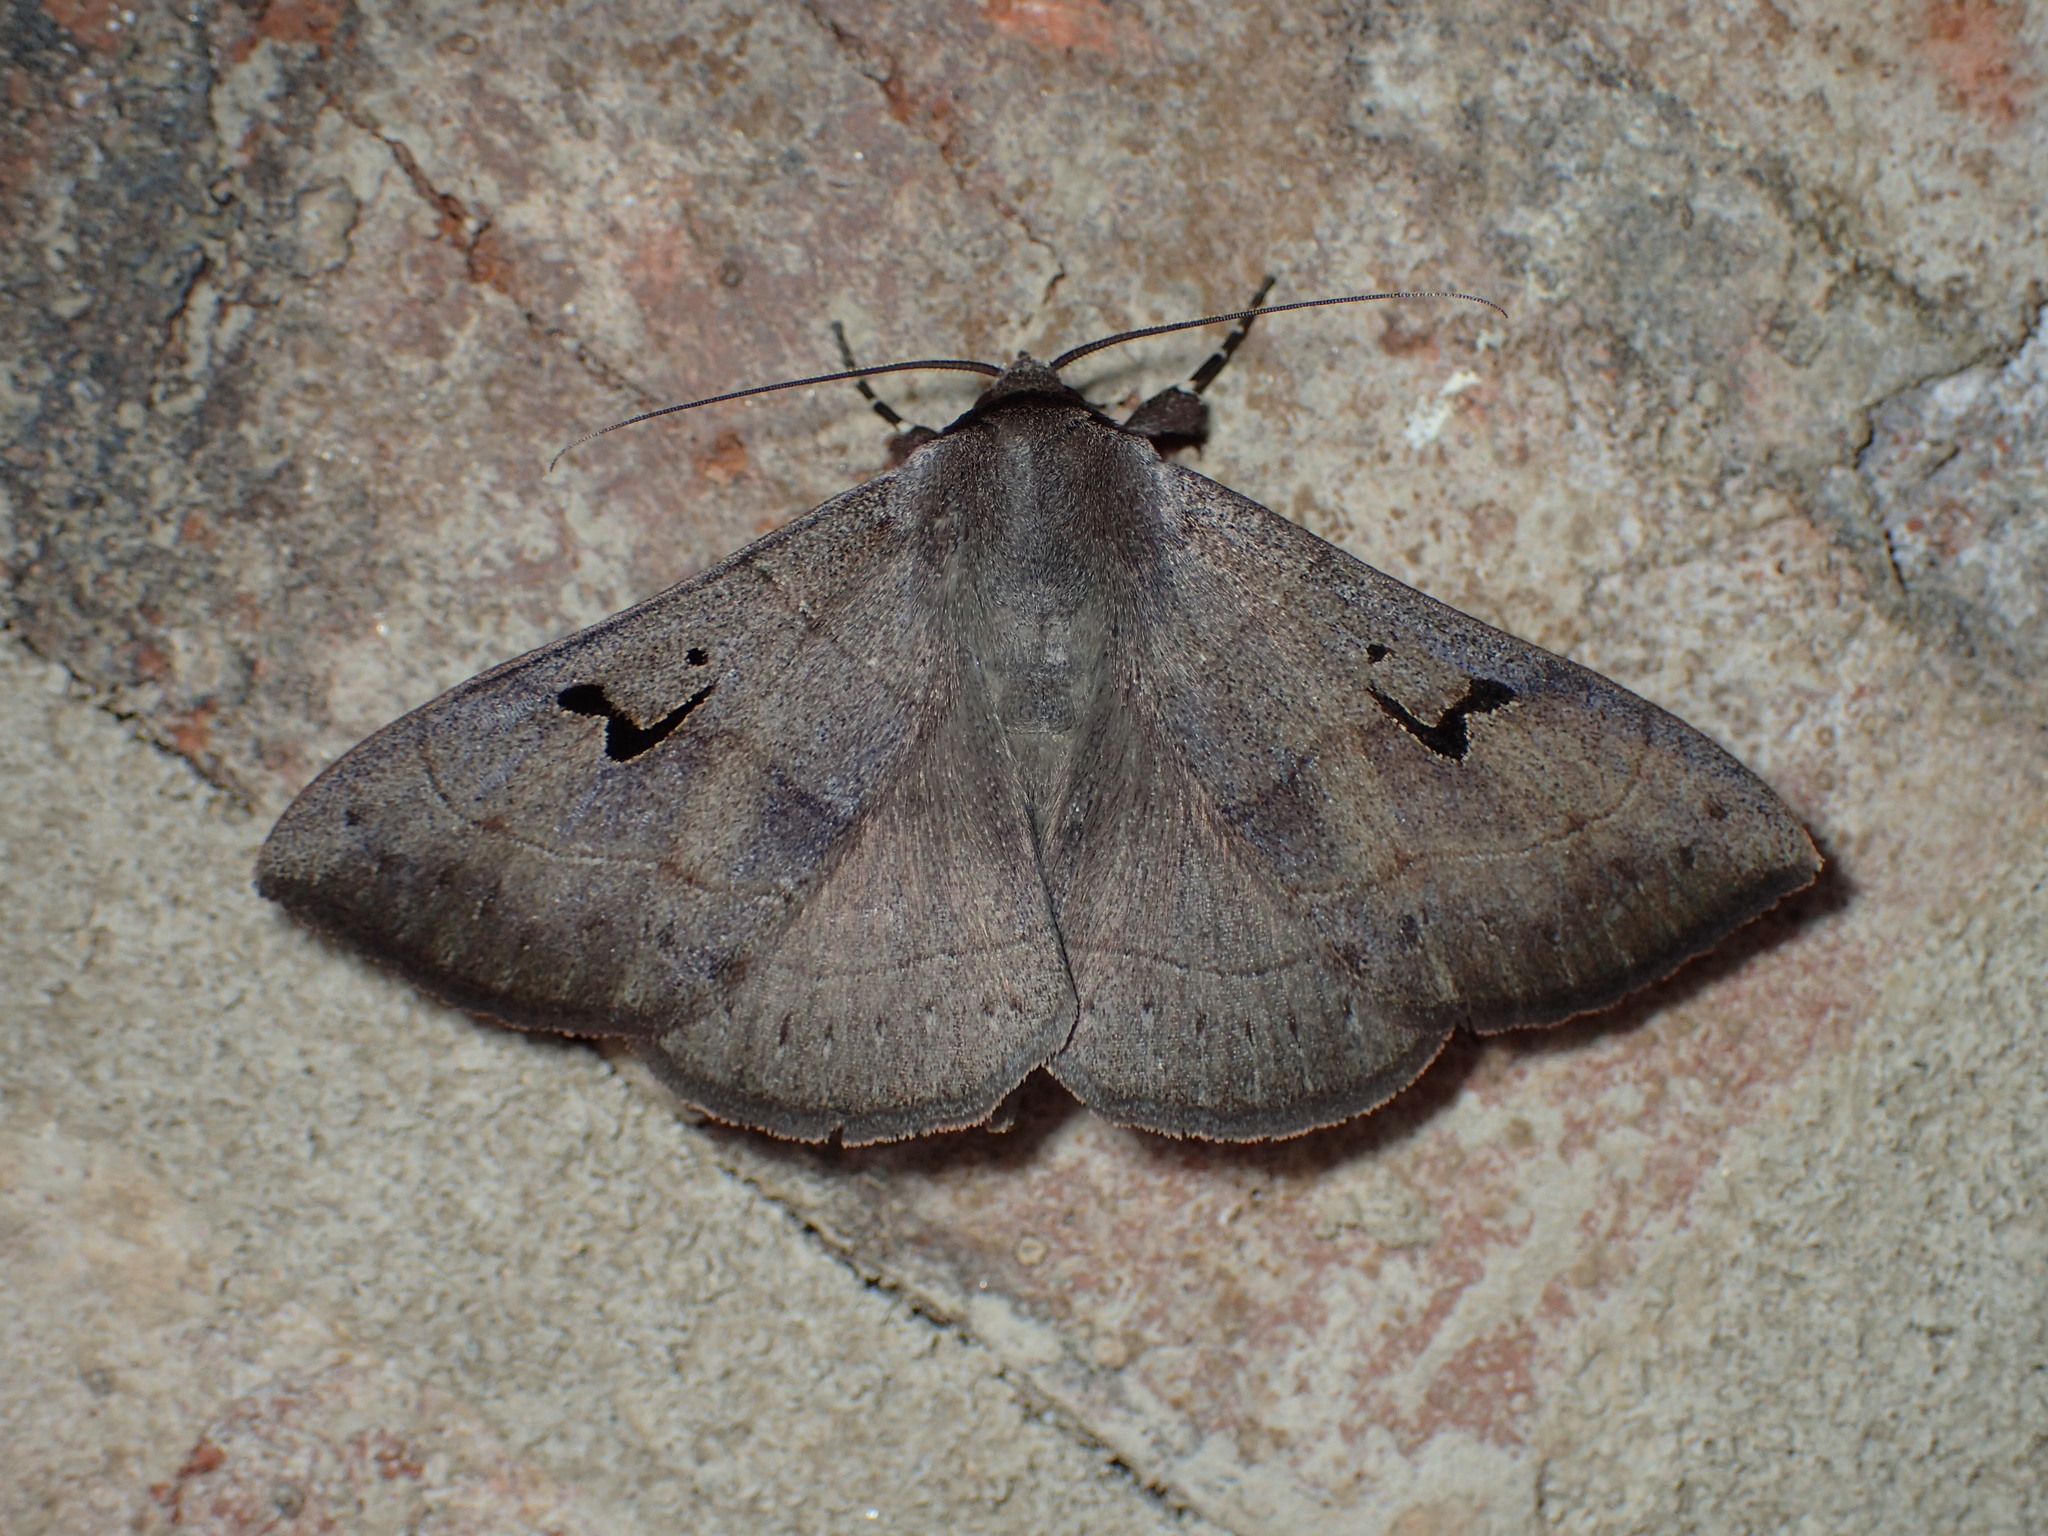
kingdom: Animalia
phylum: Arthropoda
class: Insecta
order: Lepidoptera
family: Erebidae
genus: Panopoda
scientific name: Panopoda carneicosta
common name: Brown panopoda moth
